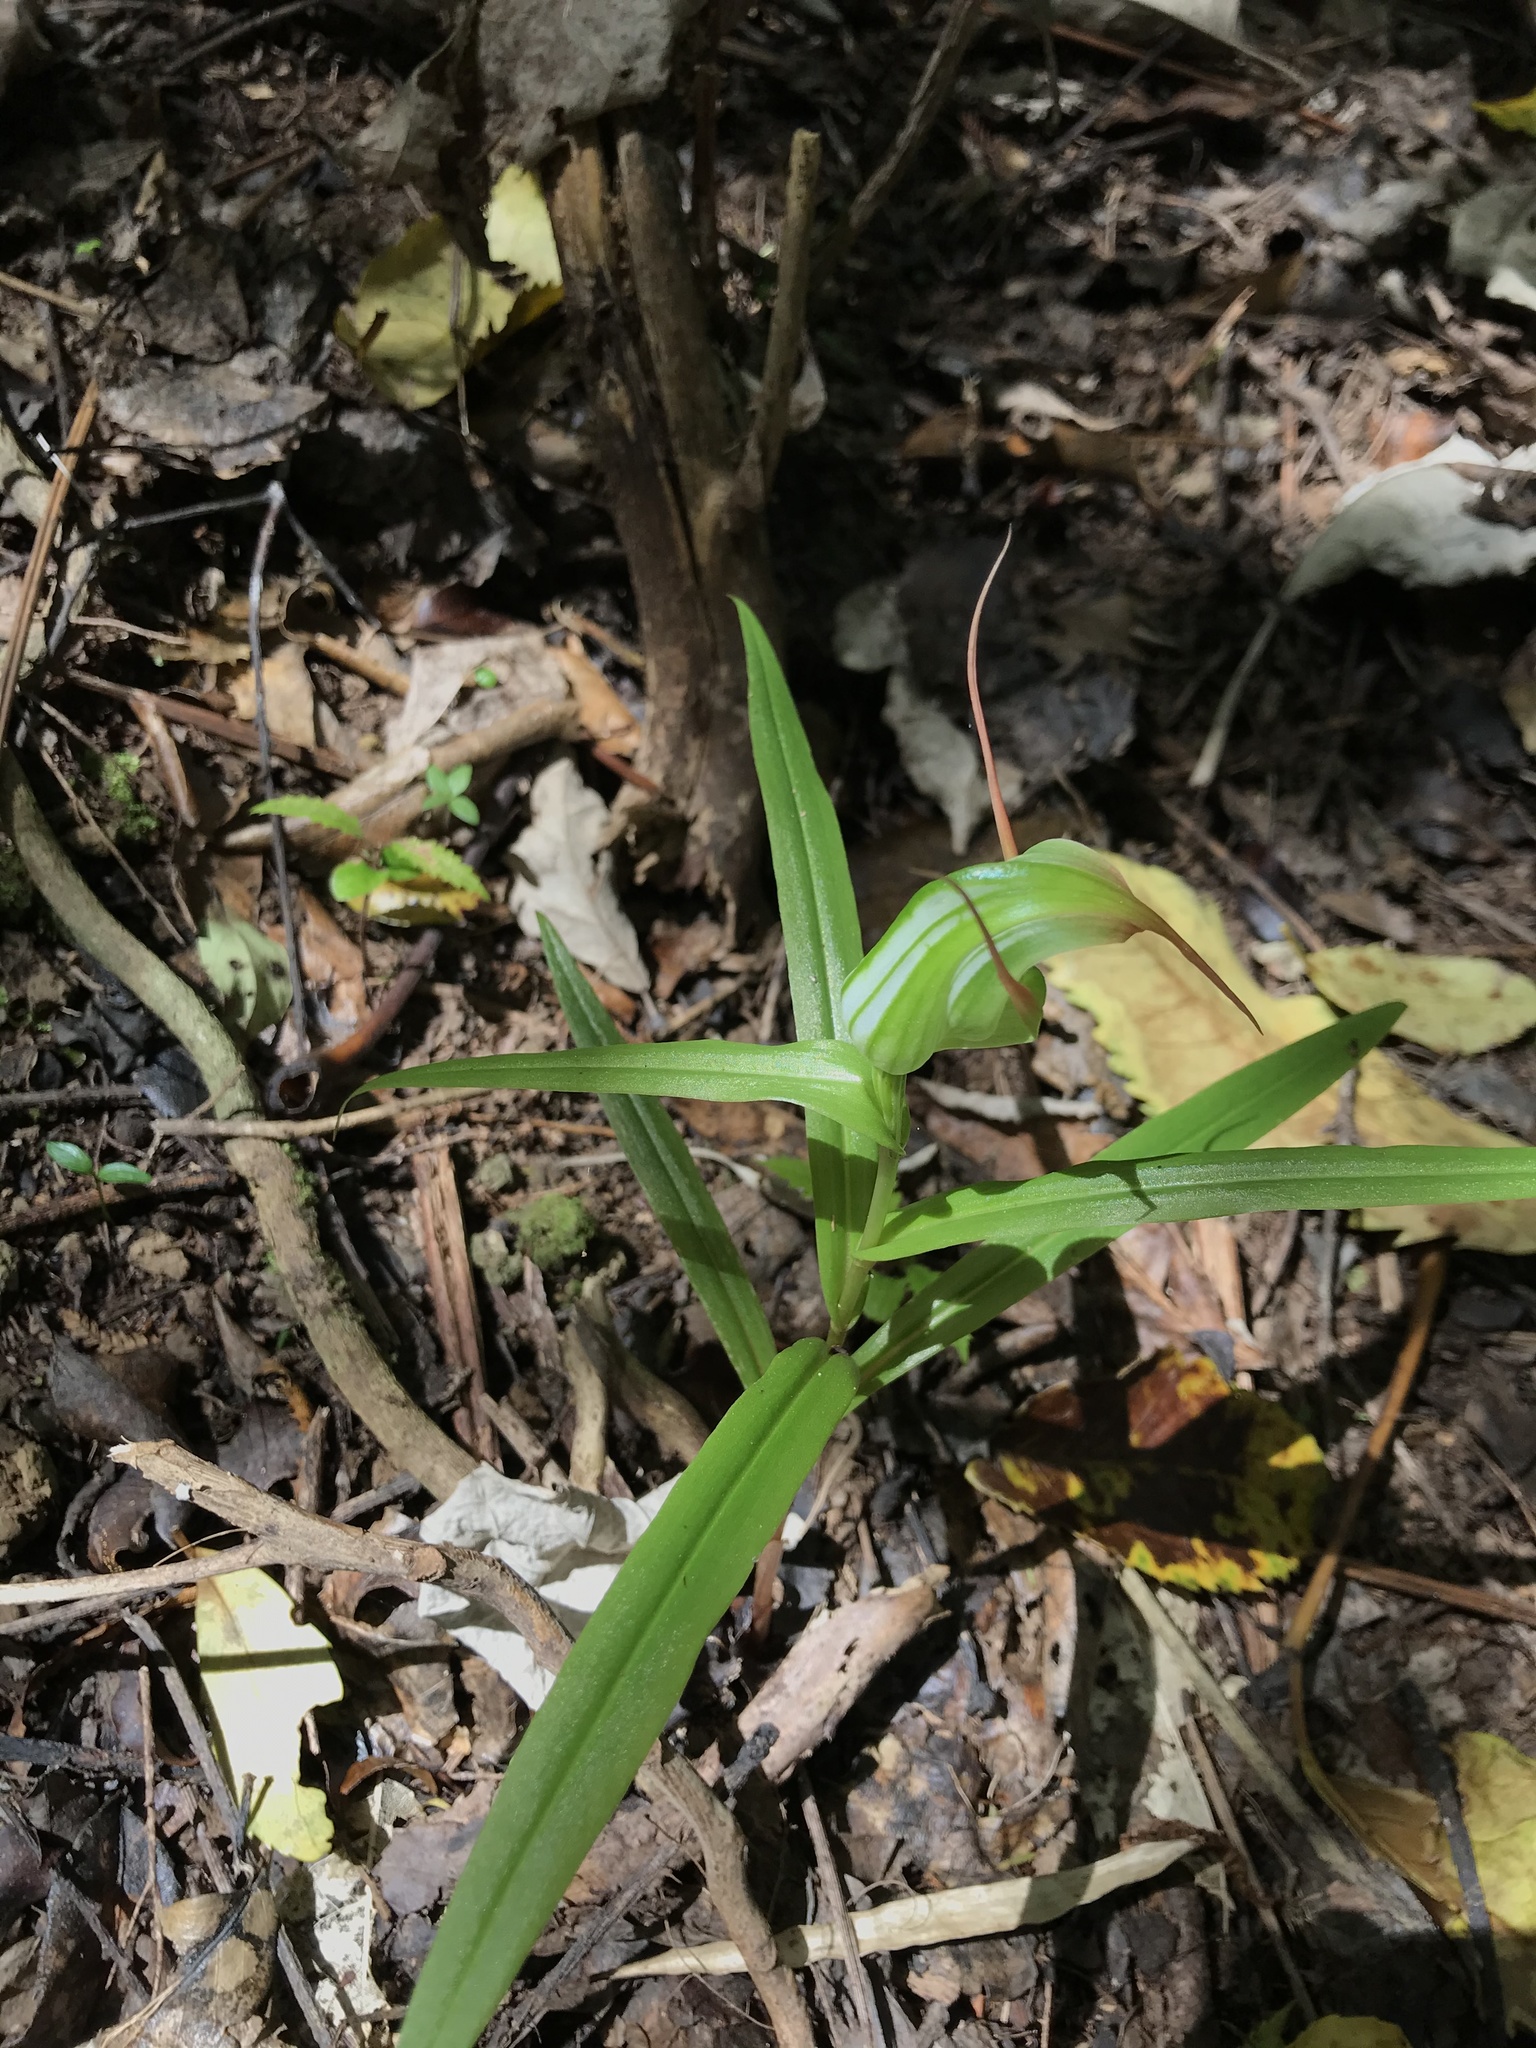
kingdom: Plantae
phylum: Tracheophyta
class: Liliopsida
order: Asparagales
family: Orchidaceae
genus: Pterostylis
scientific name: Pterostylis banksii
